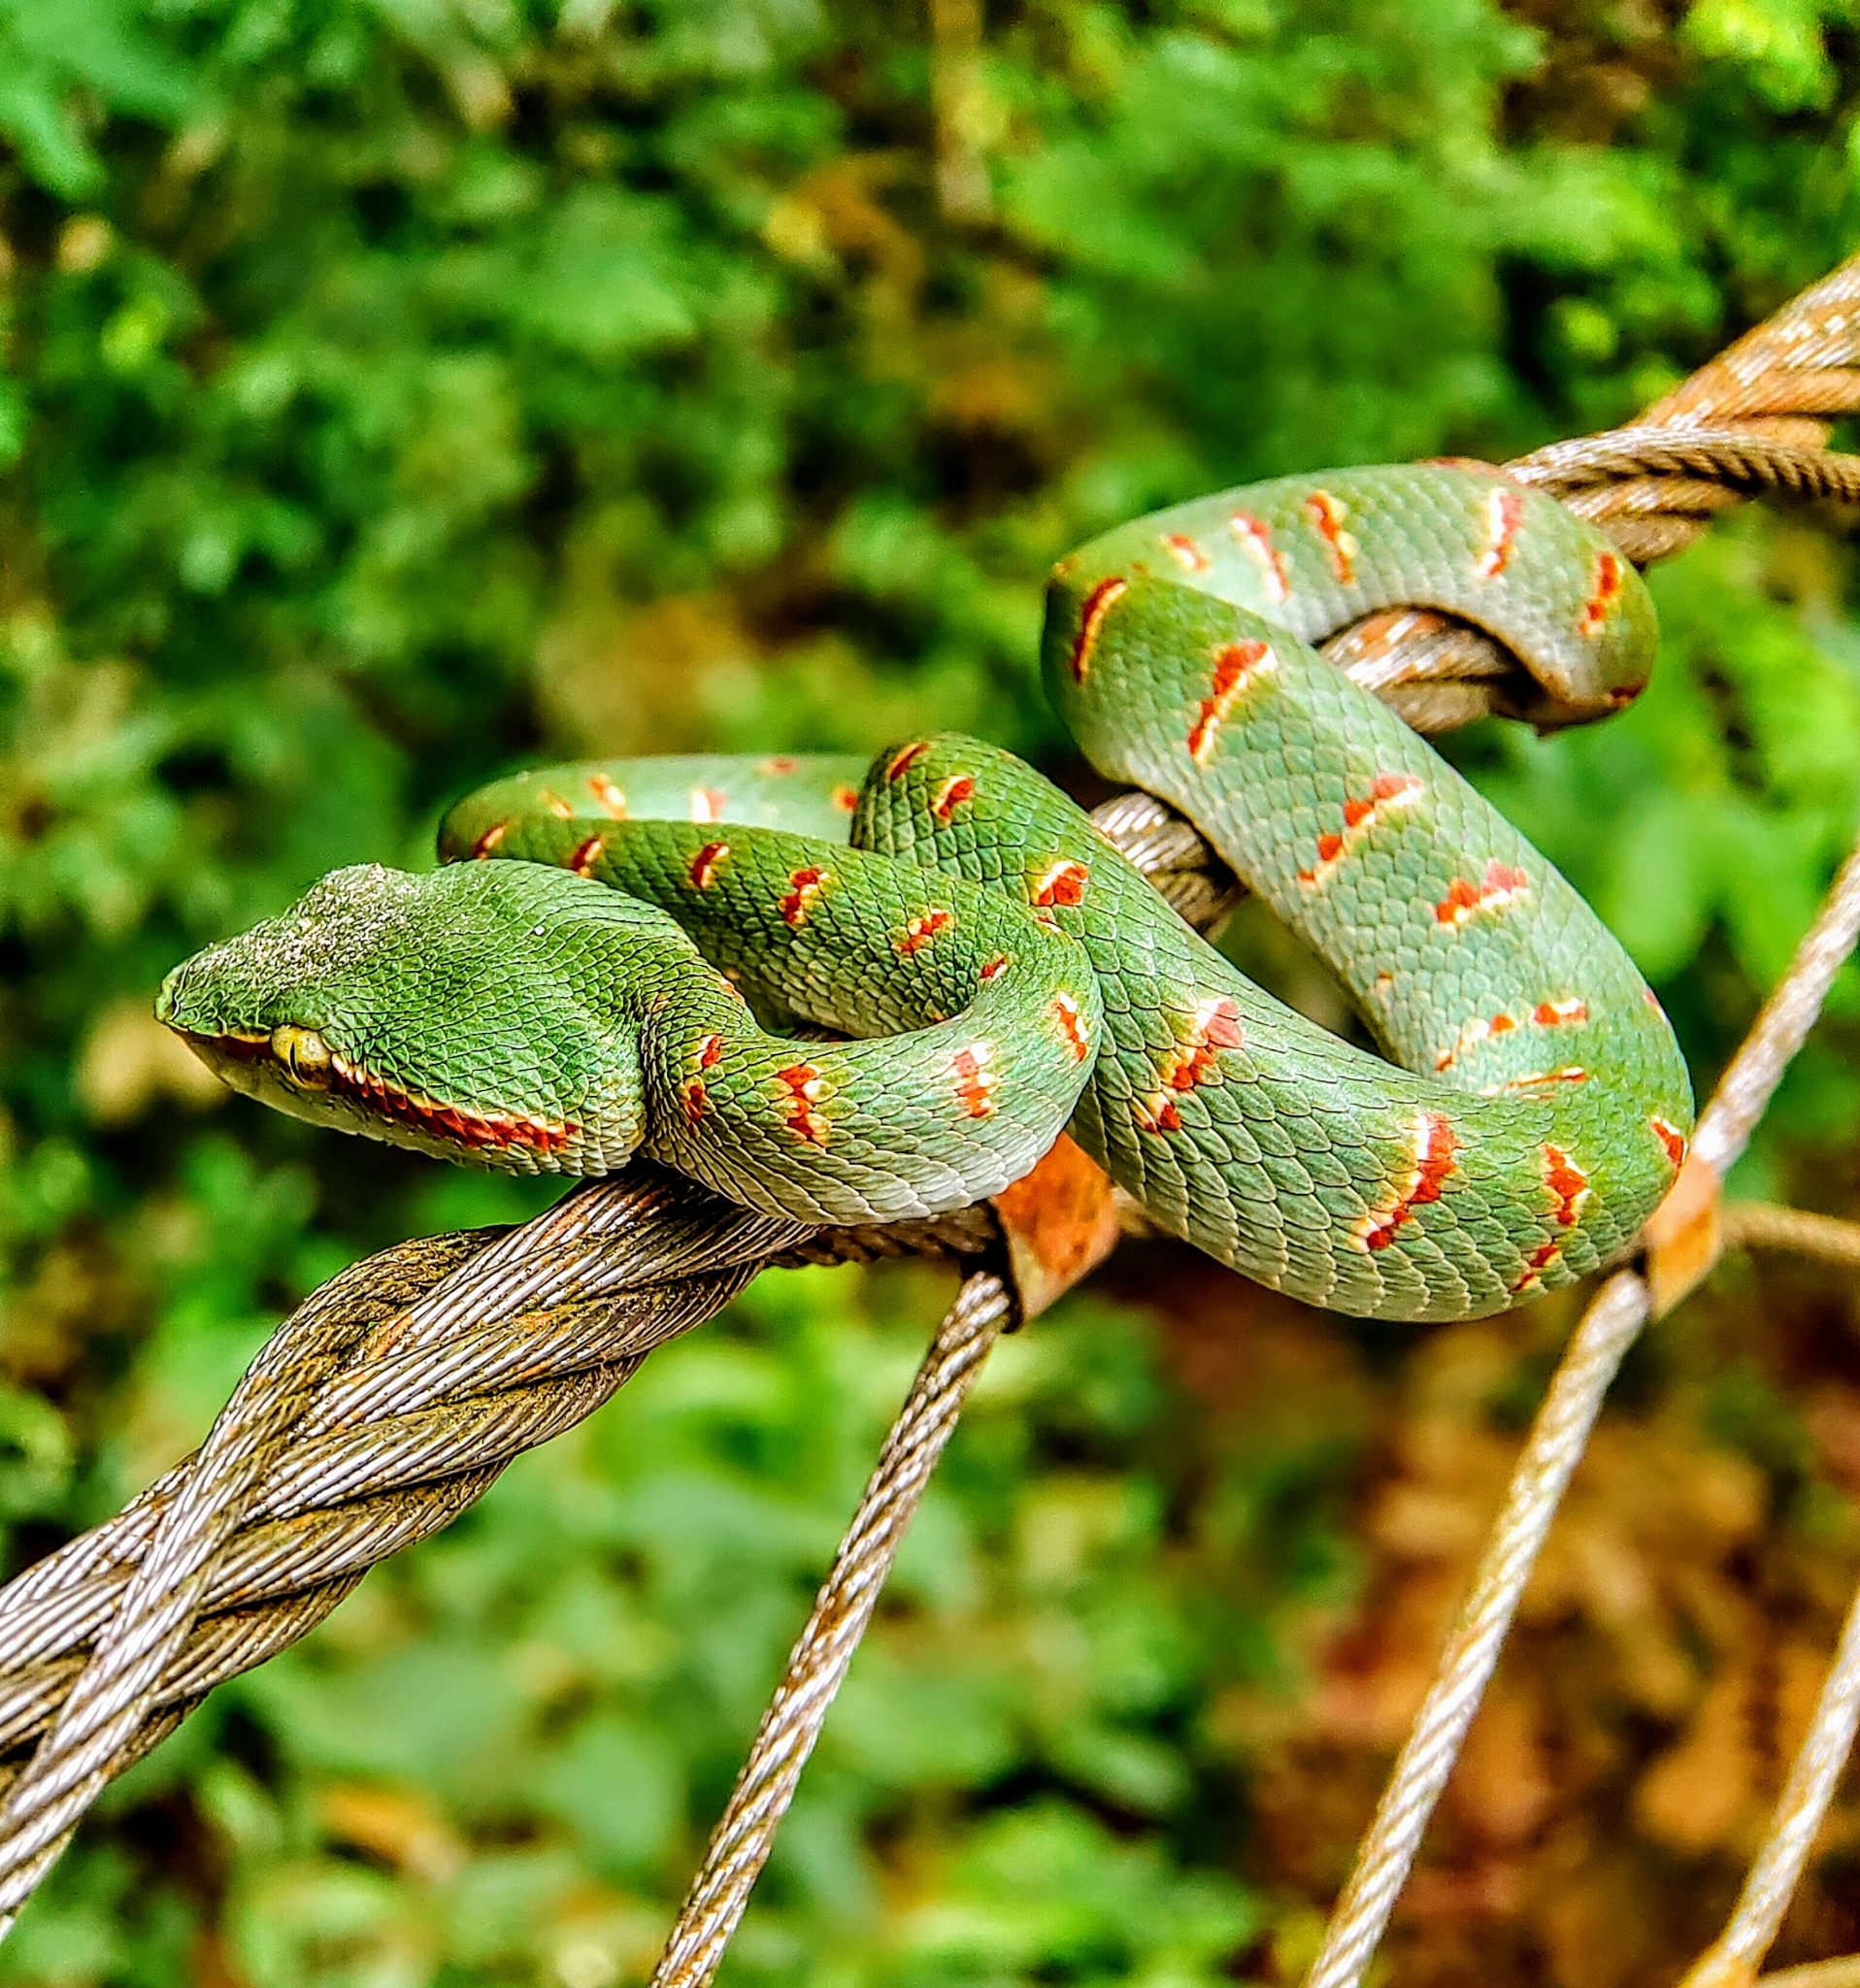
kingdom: Animalia
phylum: Chordata
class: Squamata
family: Viperidae
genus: Tropidolaemus
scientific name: Tropidolaemus wagleri
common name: Wagler's palm viper
